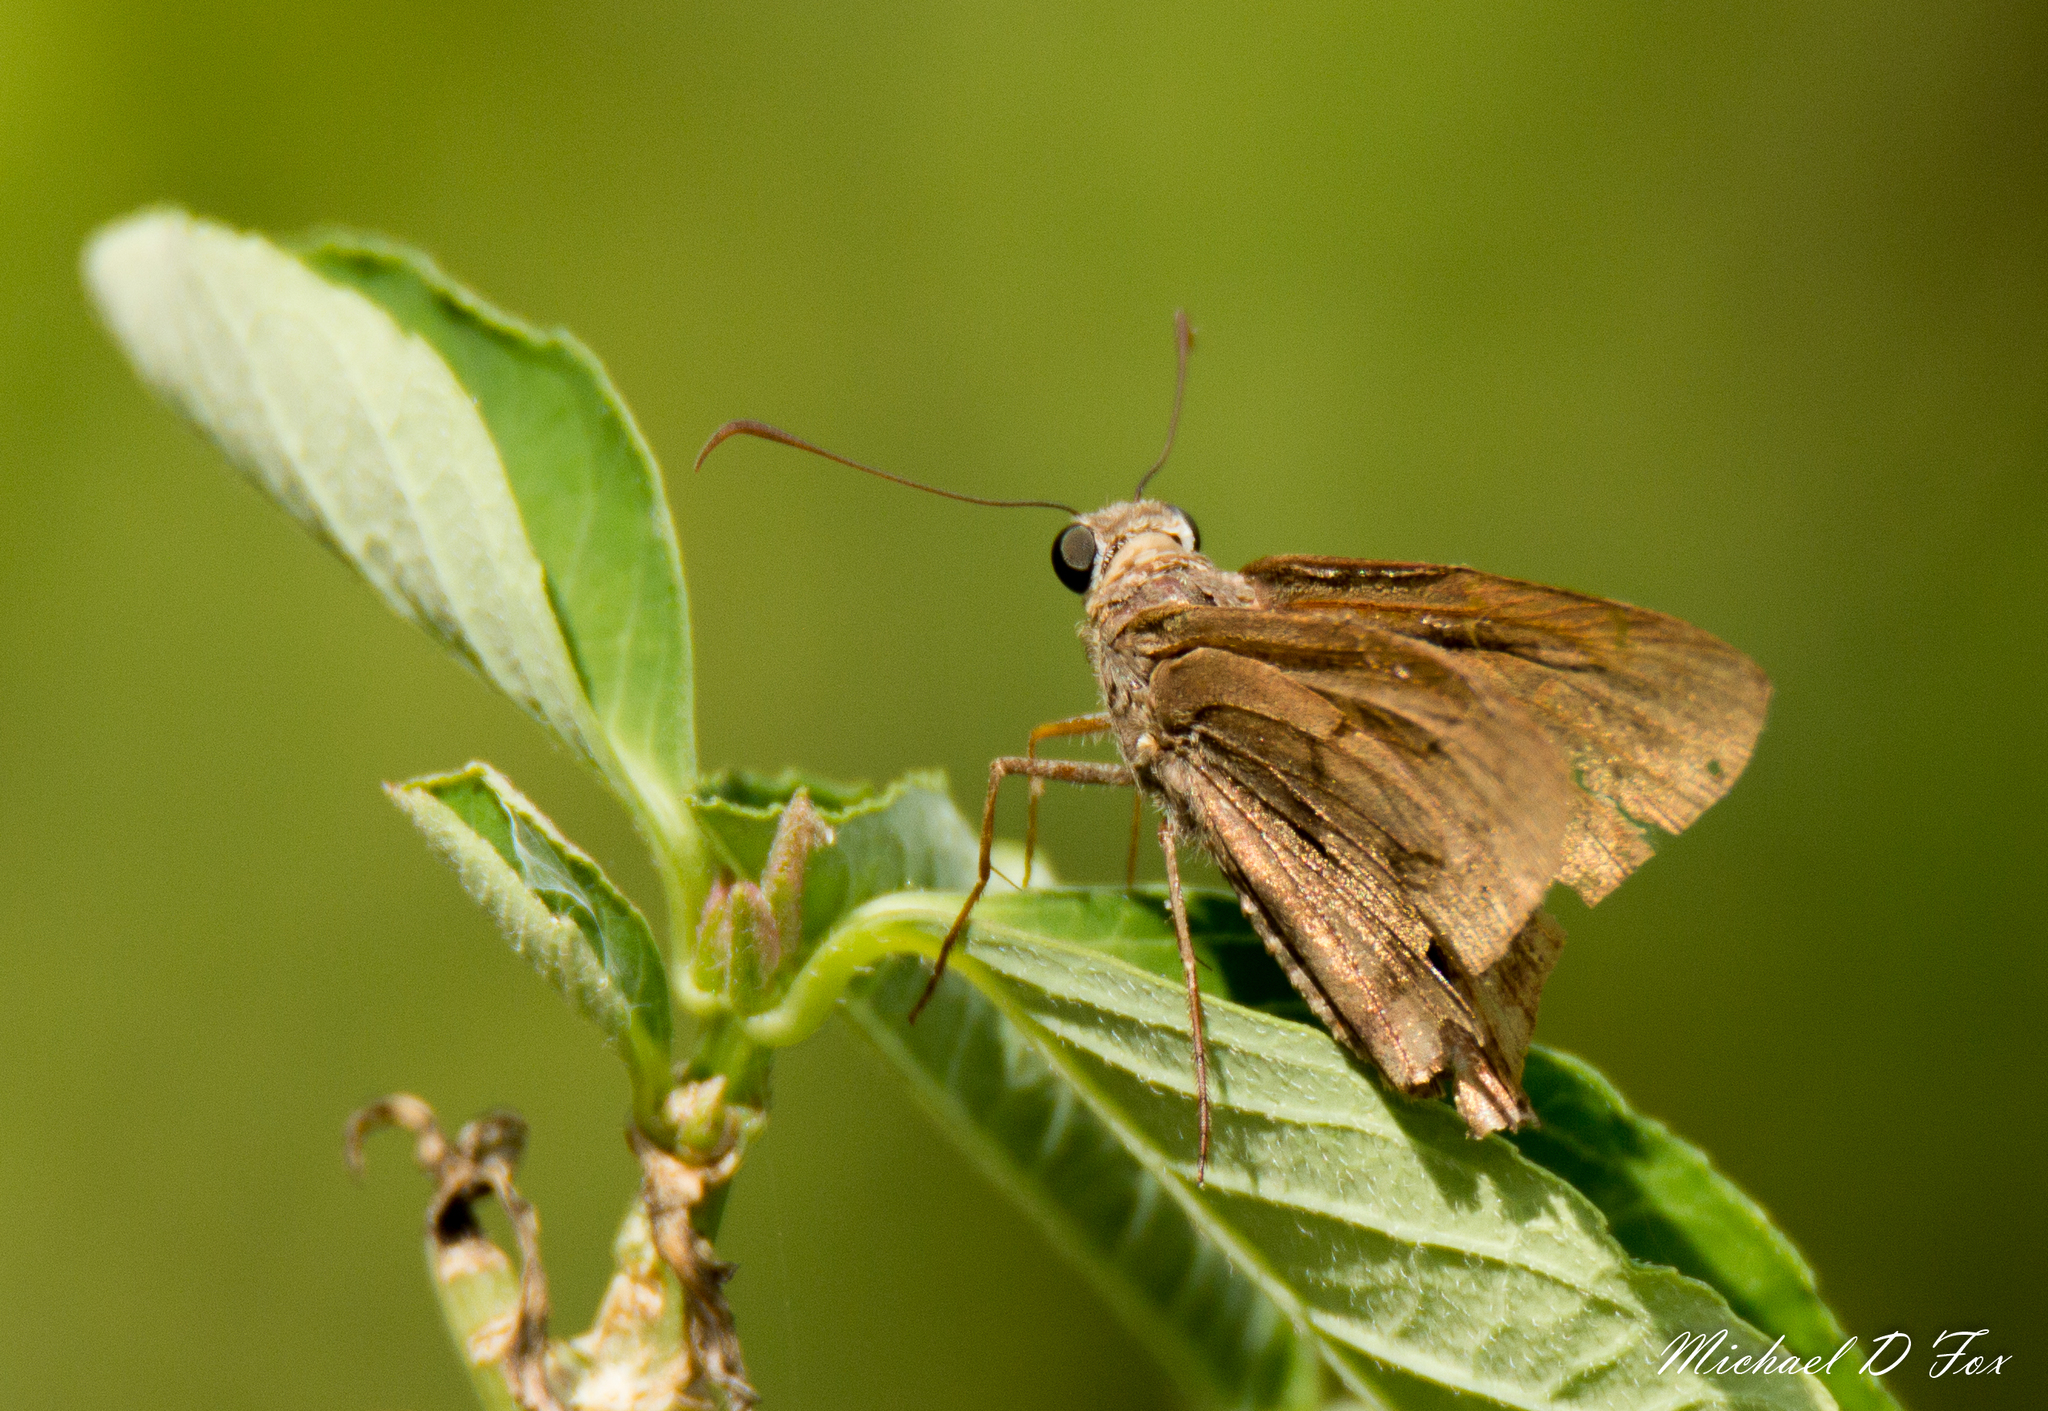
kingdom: Animalia
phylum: Arthropoda
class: Insecta
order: Lepidoptera
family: Hesperiidae
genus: Urbanus
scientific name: Urbanus procne
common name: Brown longtail
